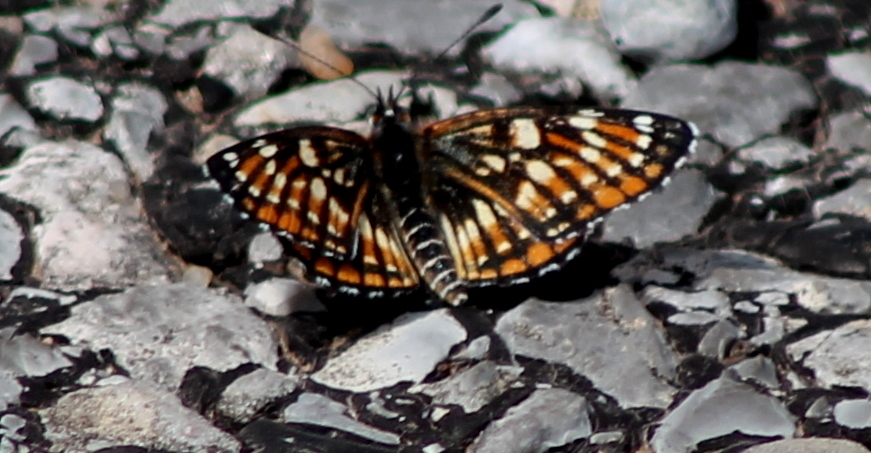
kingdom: Animalia
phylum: Arthropoda
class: Insecta
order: Lepidoptera
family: Nymphalidae
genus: Thessalia
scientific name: Thessalia leanira
